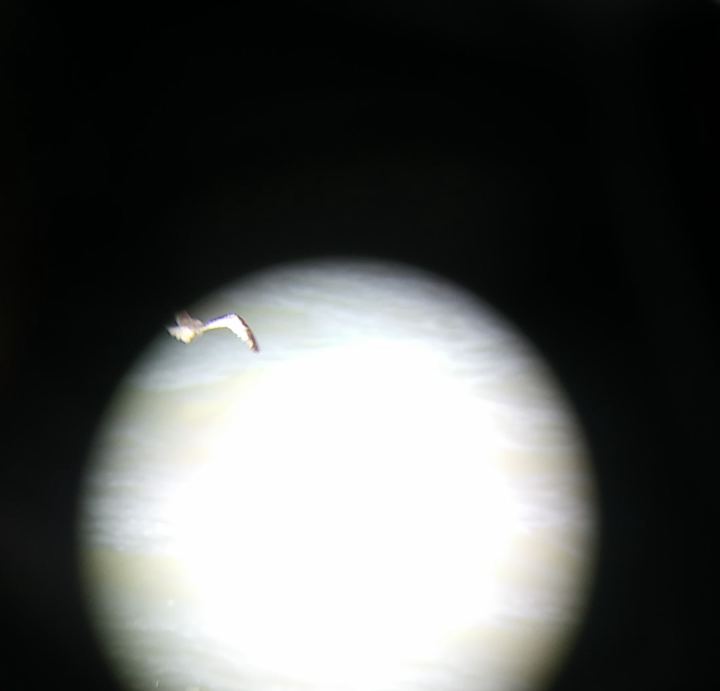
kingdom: Animalia
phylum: Chordata
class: Aves
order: Charadriiformes
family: Laridae
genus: Rissa
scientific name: Rissa tridactyla
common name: Black-legged kittiwake
